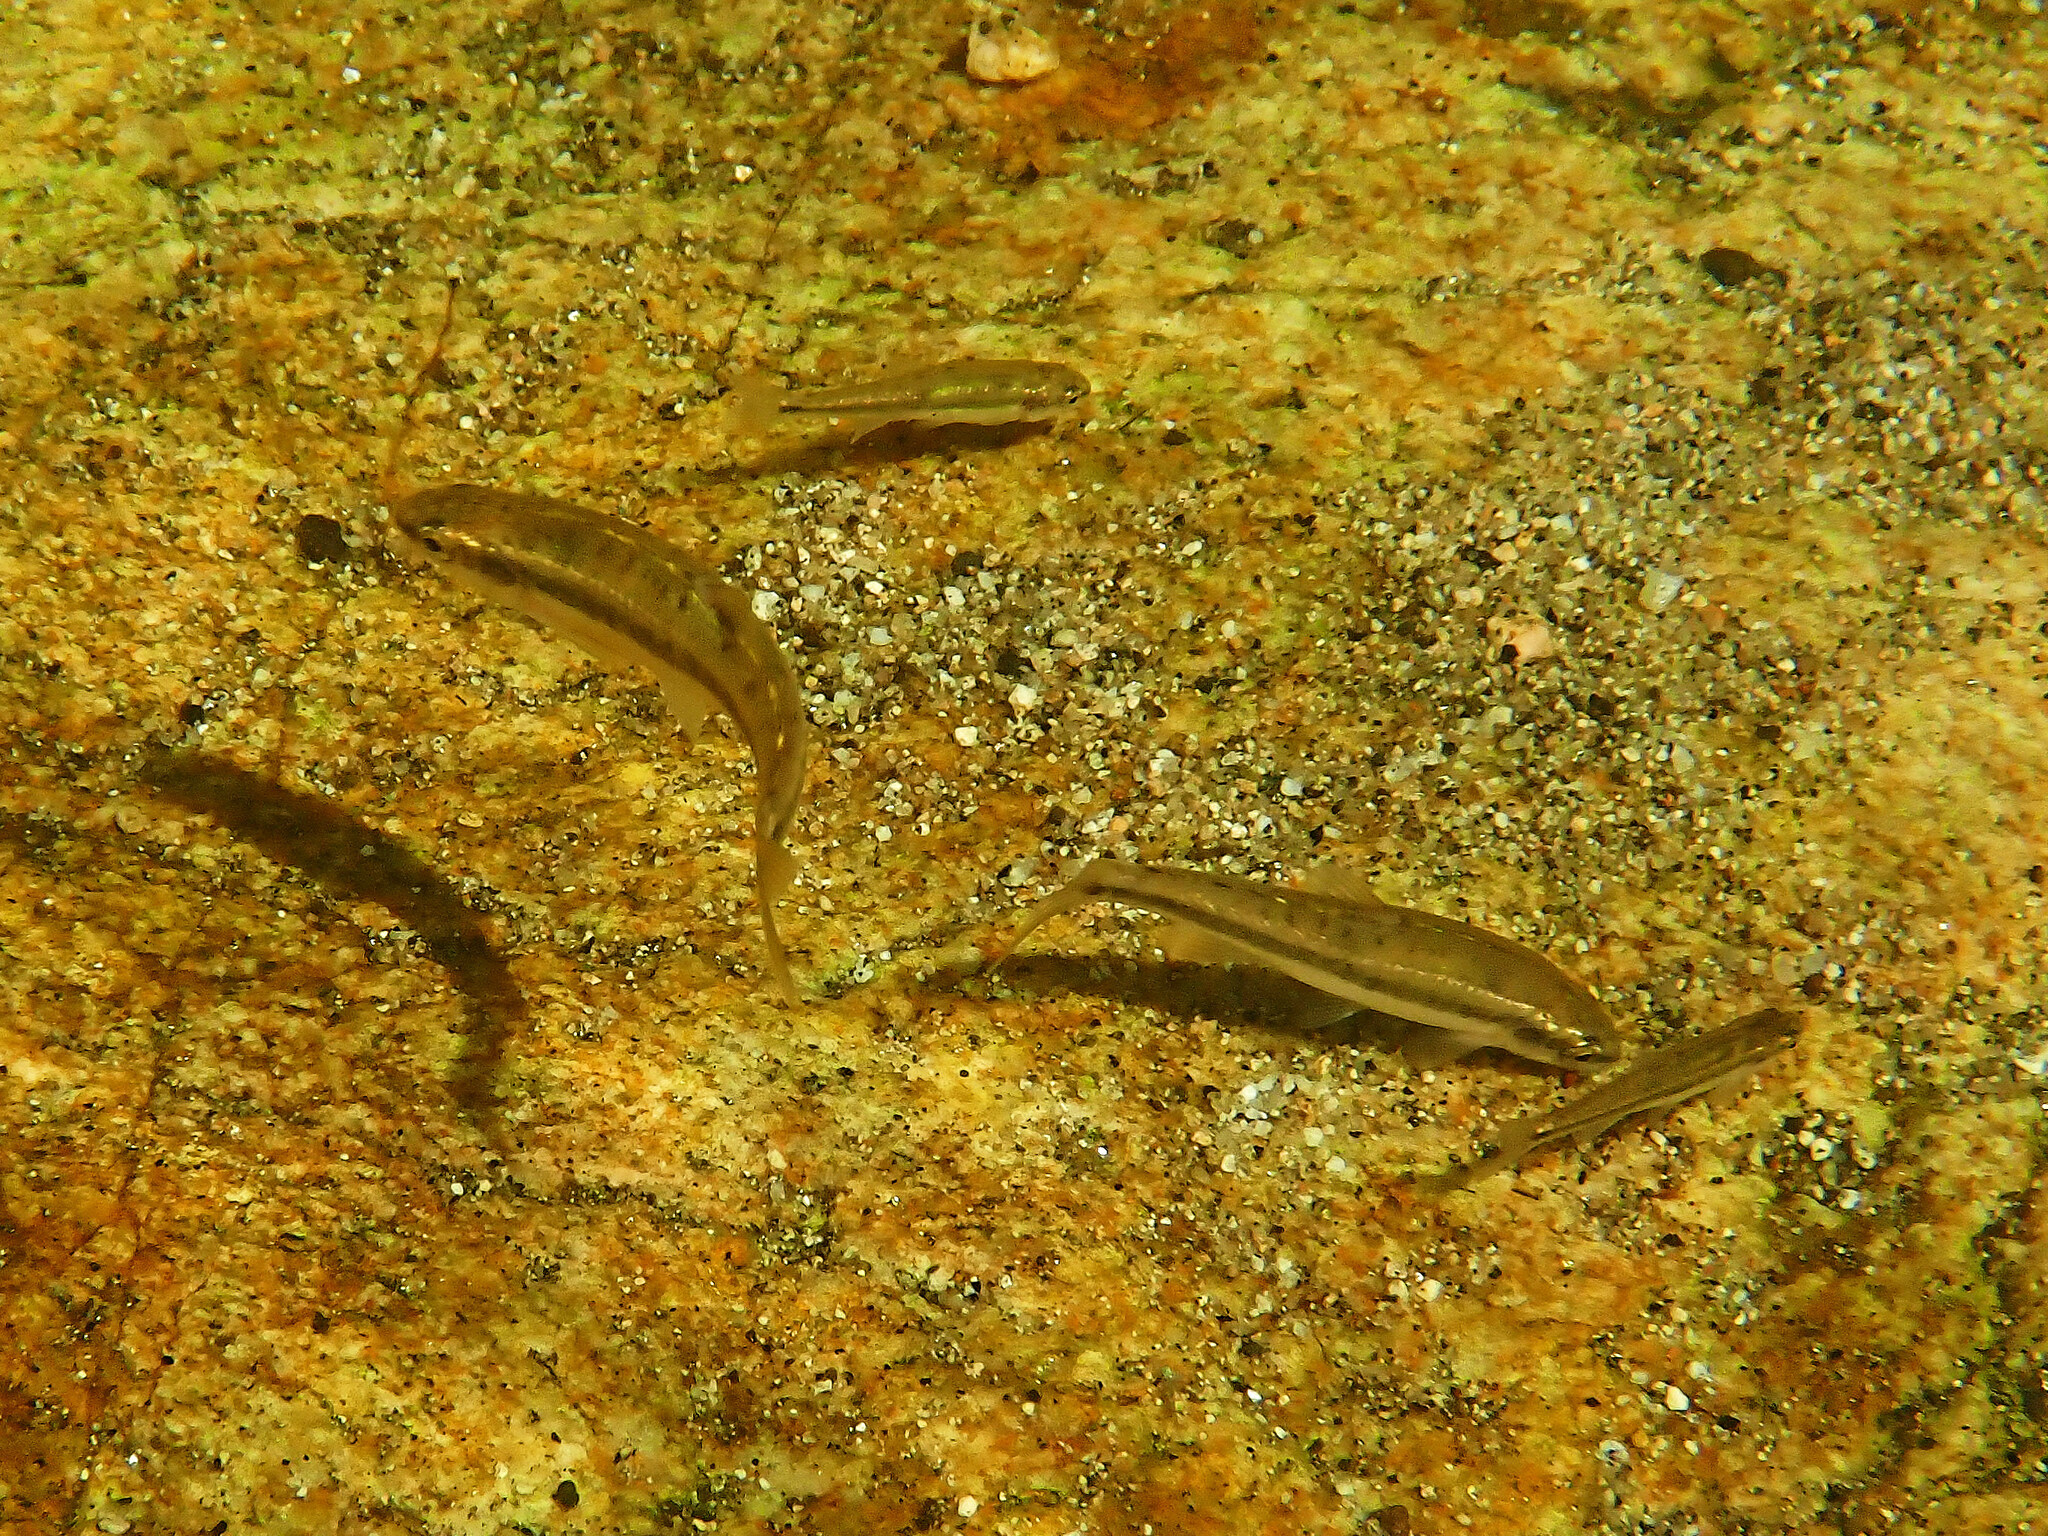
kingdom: Animalia
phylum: Chordata
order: Cypriniformes
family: Cyprinidae
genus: Phoxinus
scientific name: Phoxinus septimaniae
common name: Languedoc minnow
